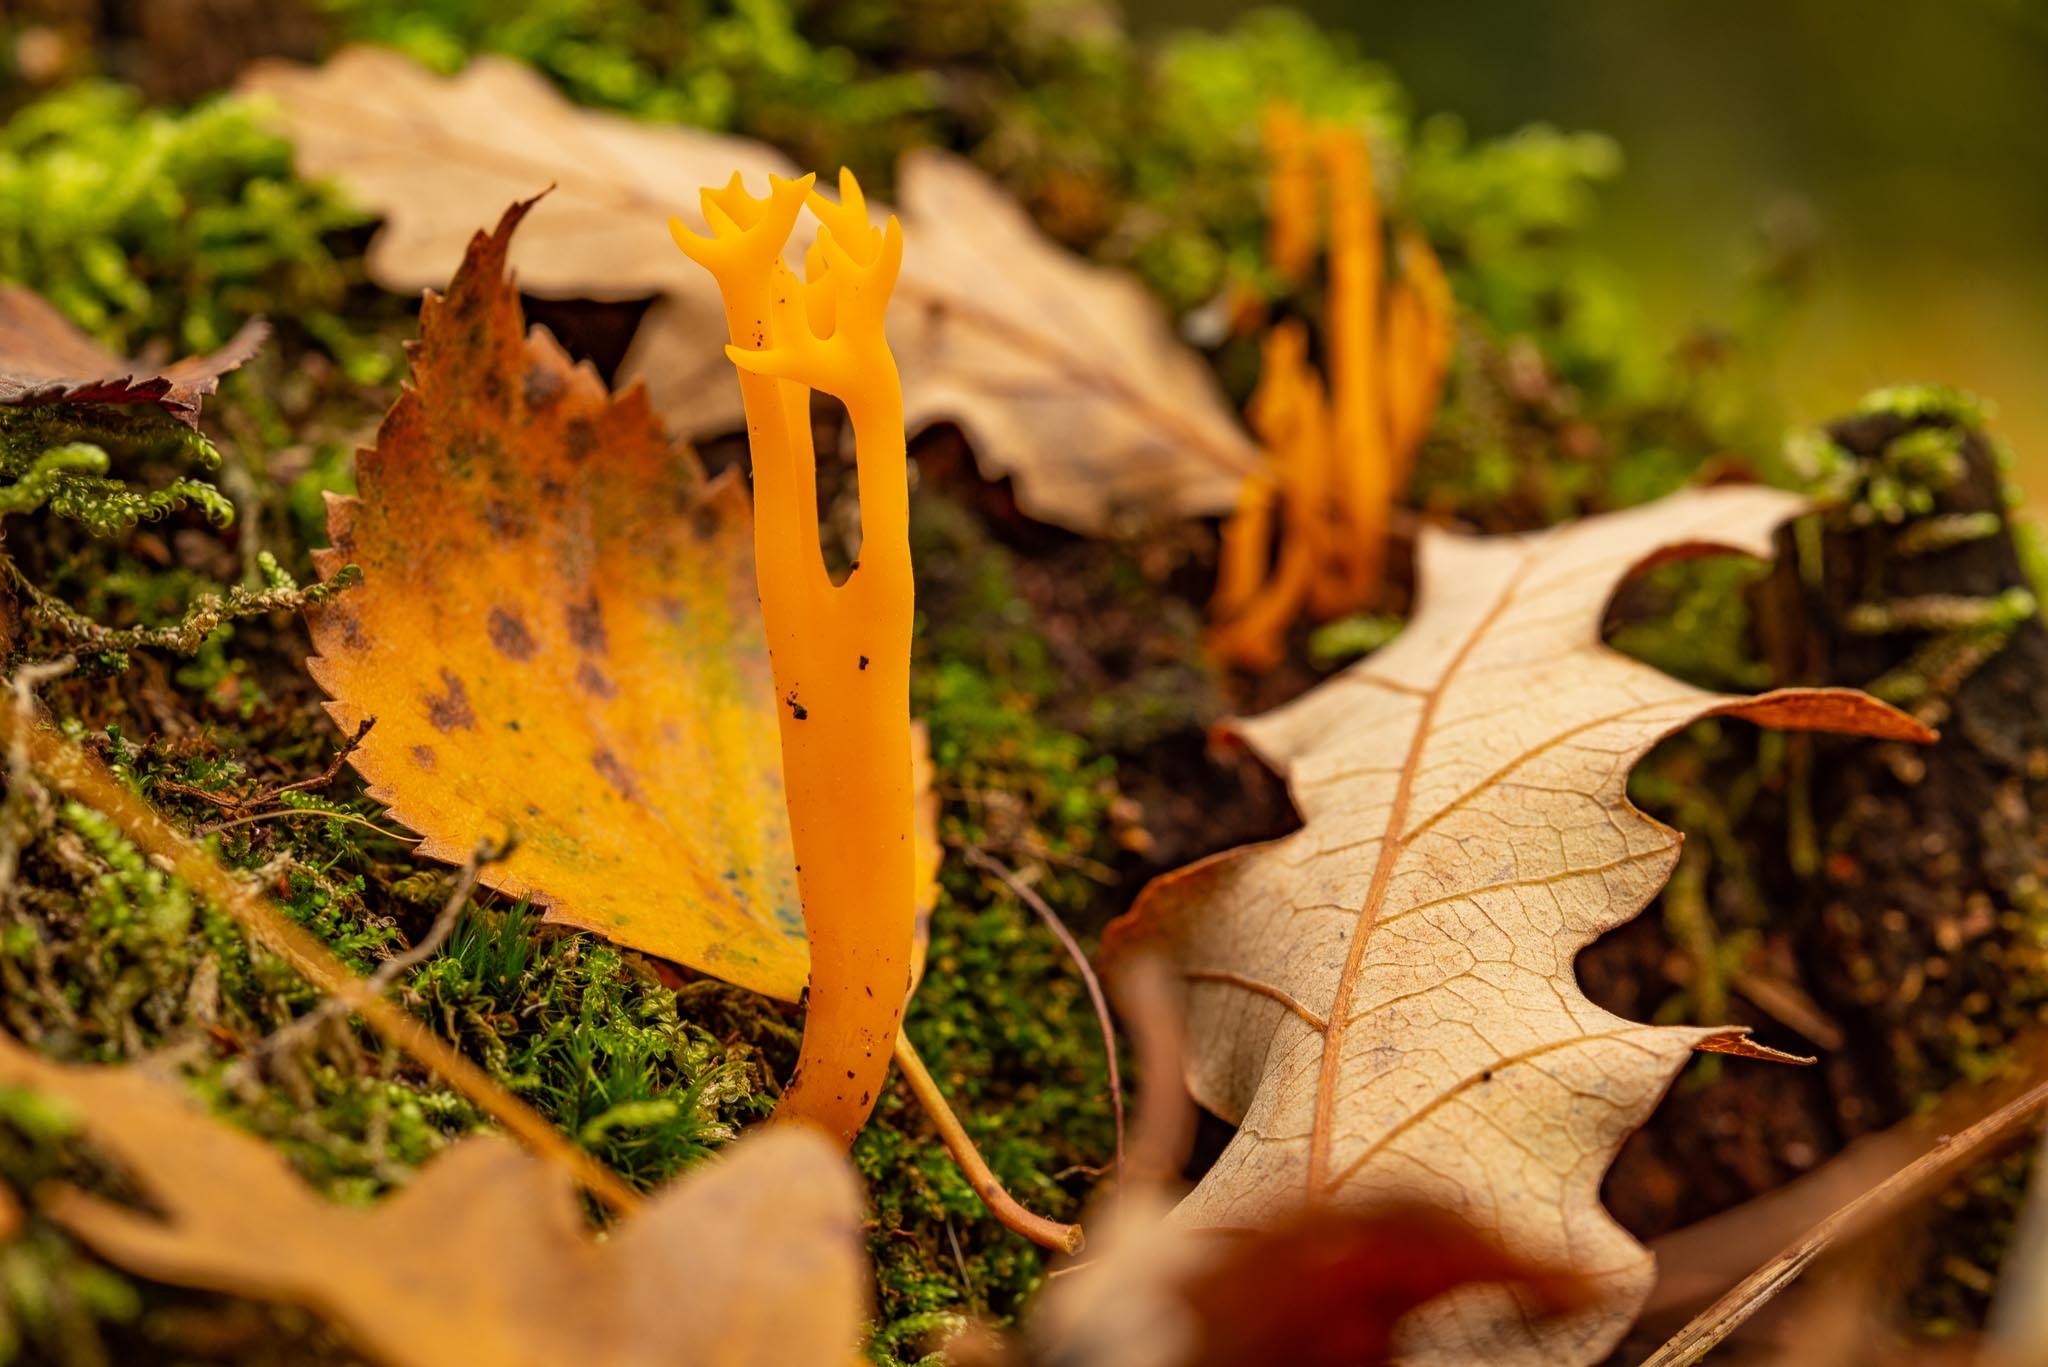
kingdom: Fungi
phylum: Basidiomycota
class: Dacrymycetes
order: Dacrymycetales
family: Dacrymycetaceae
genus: Calocera
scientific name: Calocera viscosa
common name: Yellow stagshorn
